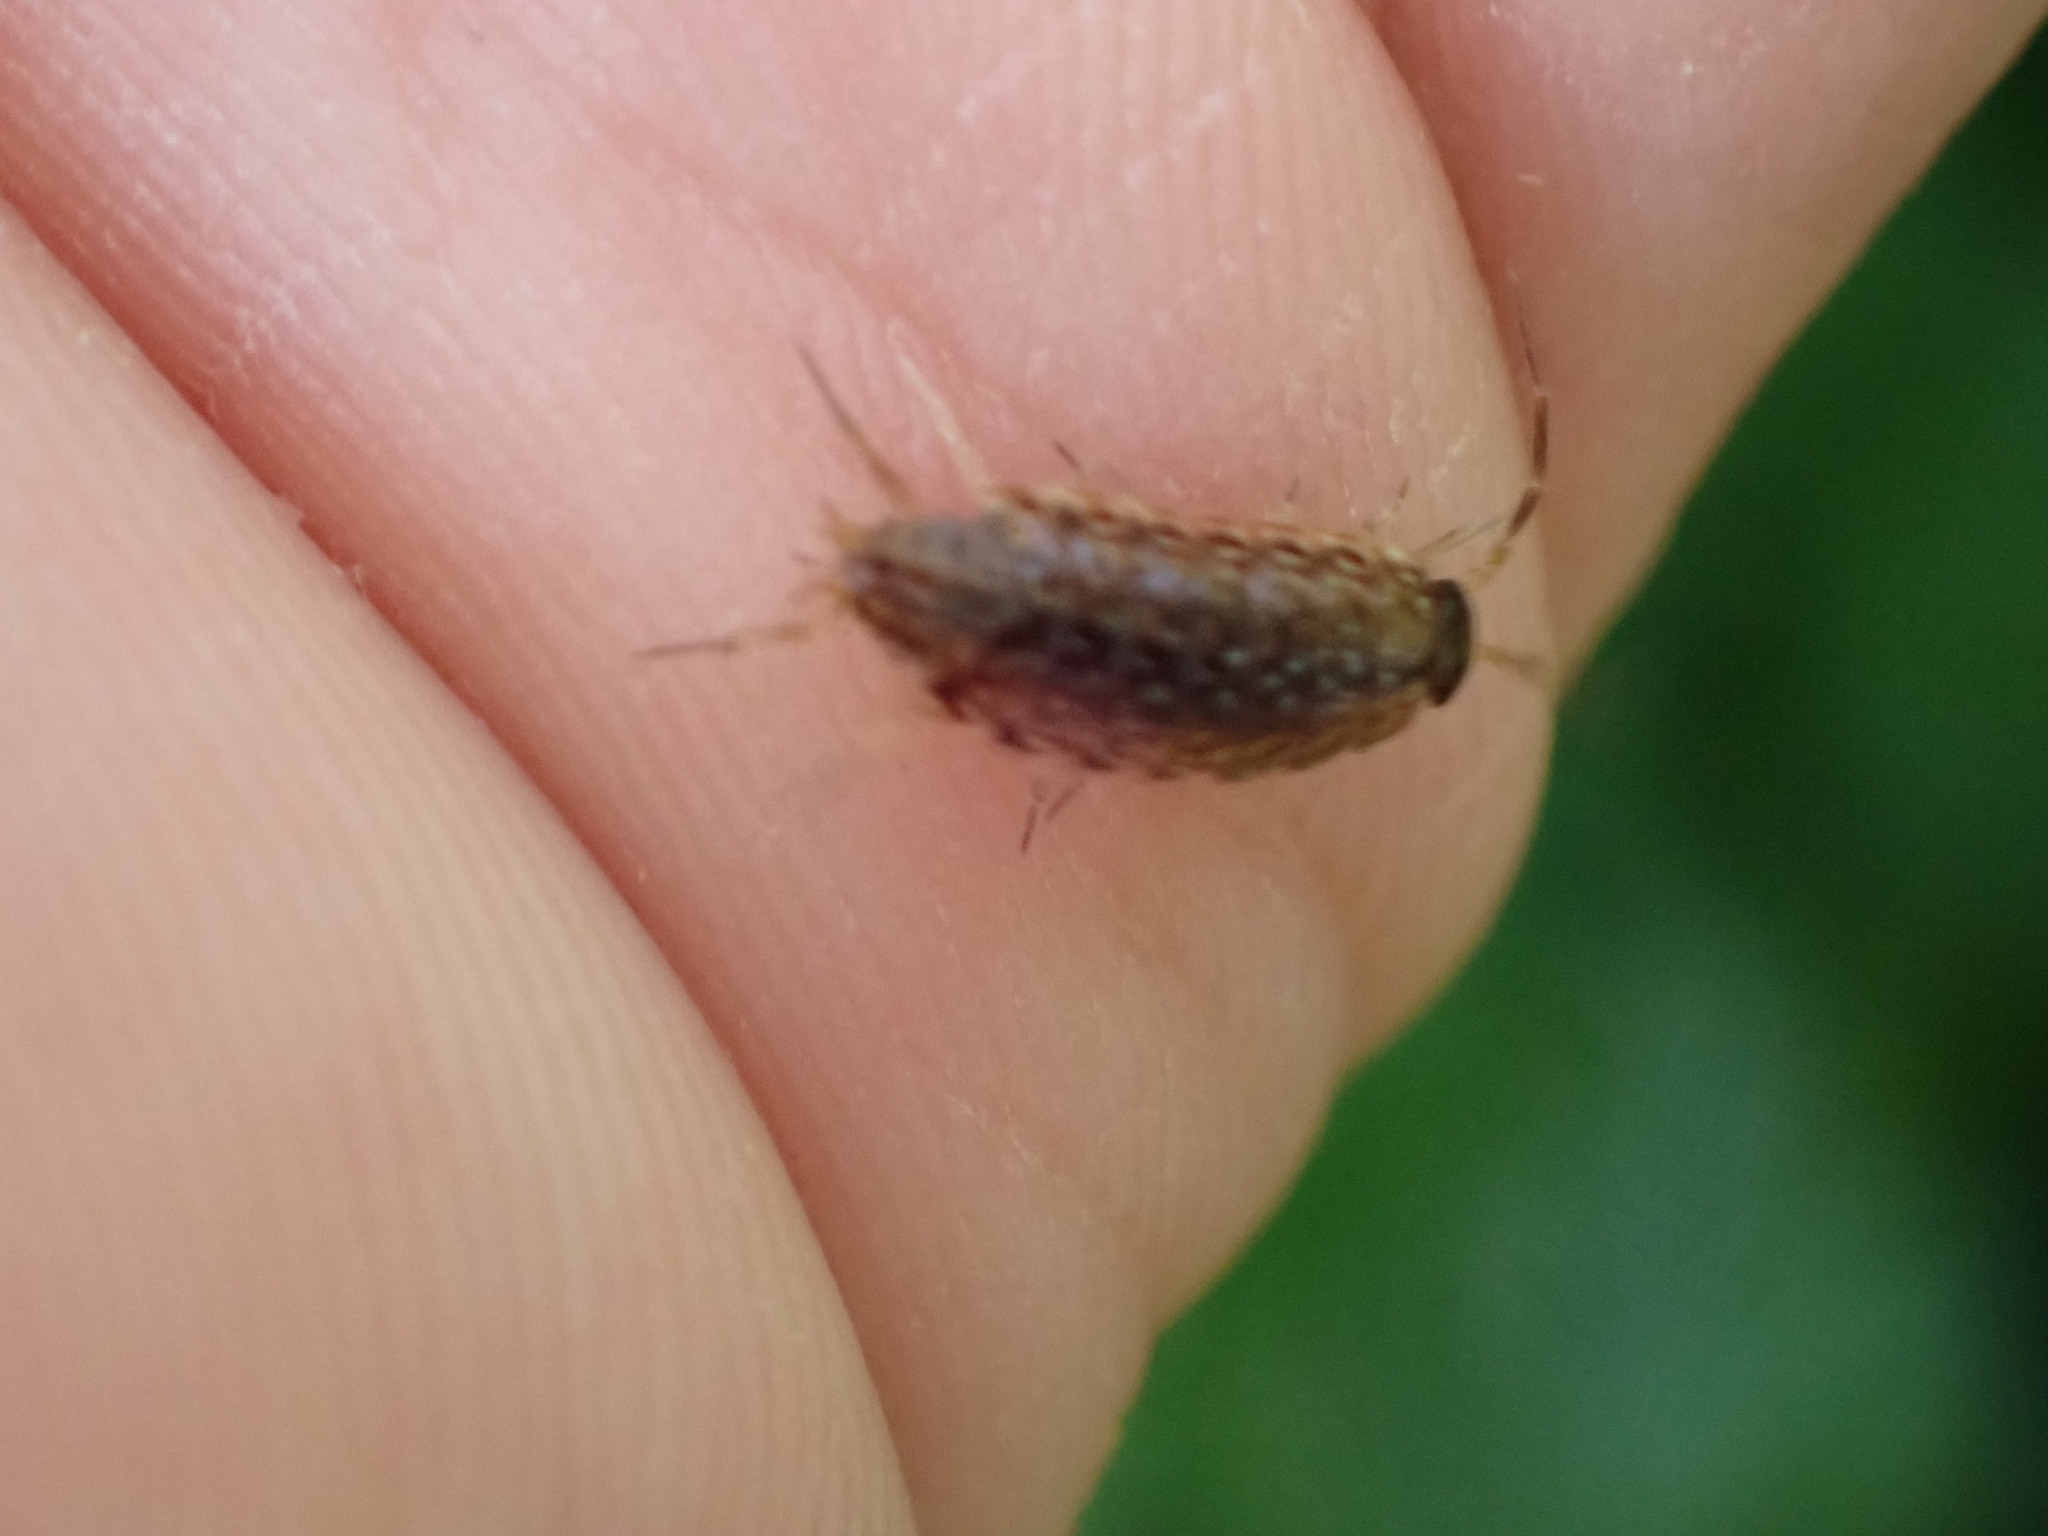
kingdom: Animalia
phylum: Arthropoda
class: Malacostraca
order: Isopoda
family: Philosciidae
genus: Philoscia
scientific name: Philoscia muscorum
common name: Common striped woodlouse
